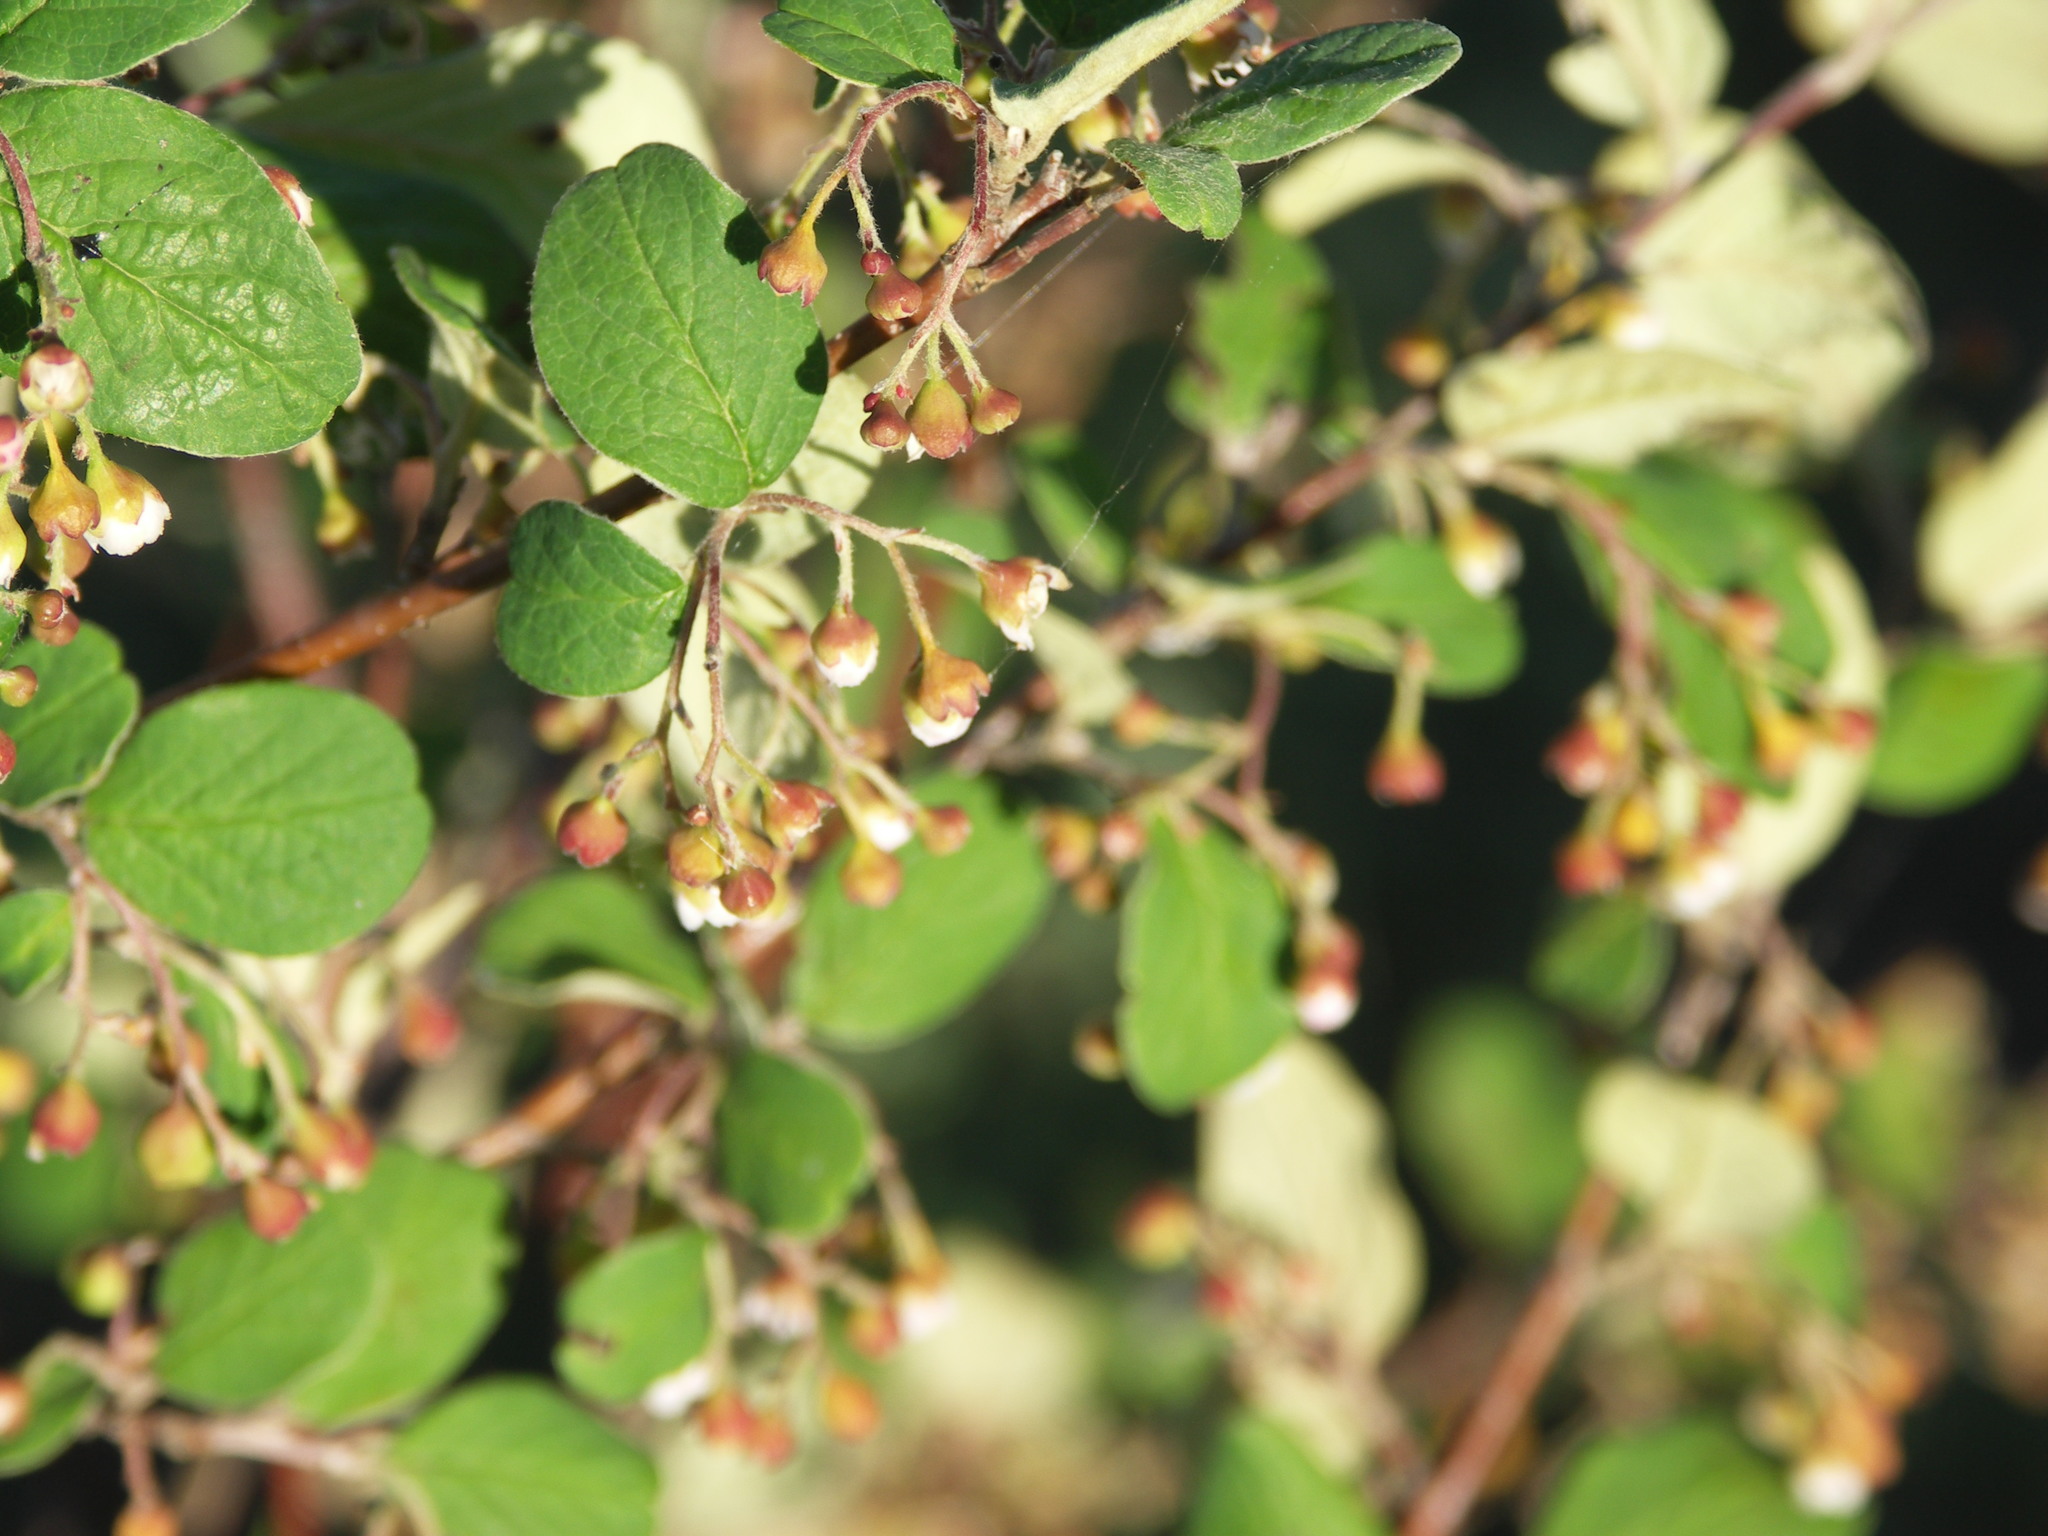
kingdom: Plantae
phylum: Tracheophyta
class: Magnoliopsida
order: Rosales
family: Rosaceae
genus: Cotoneaster
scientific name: Cotoneaster melanocarpus
